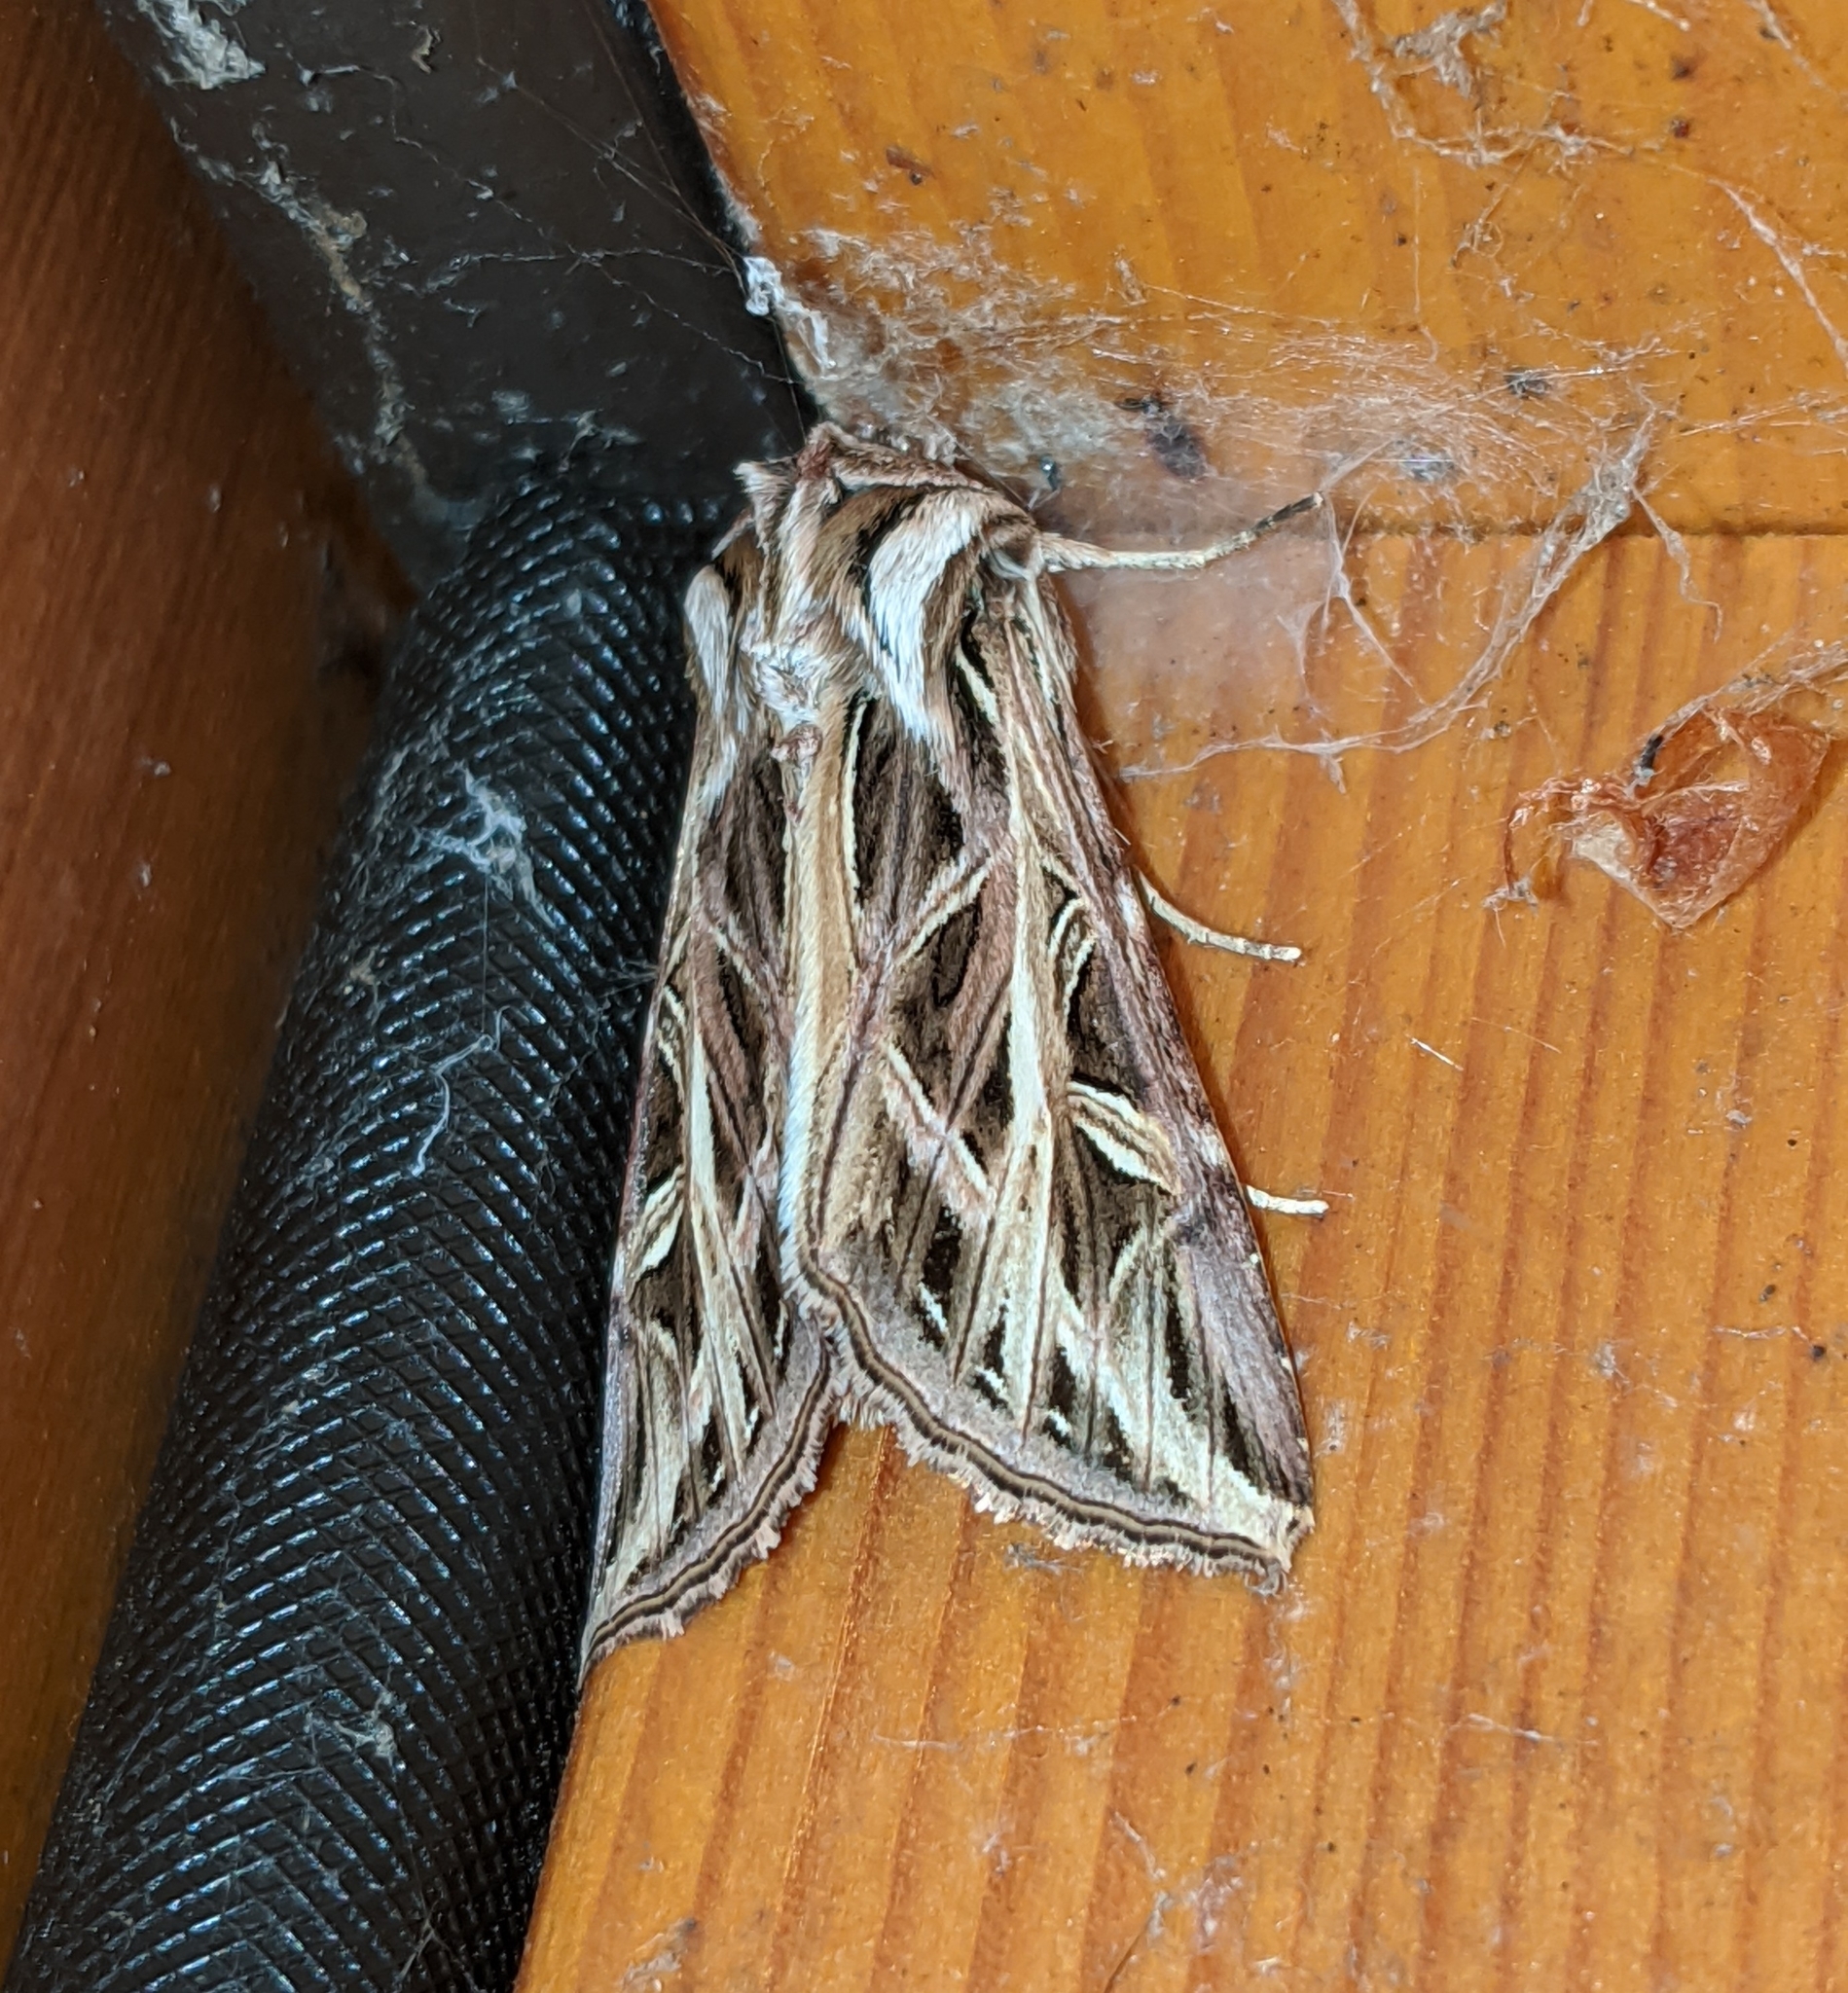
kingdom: Animalia
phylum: Arthropoda
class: Insecta
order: Lepidoptera
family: Noctuidae
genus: Dargida
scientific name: Dargida procinctus
